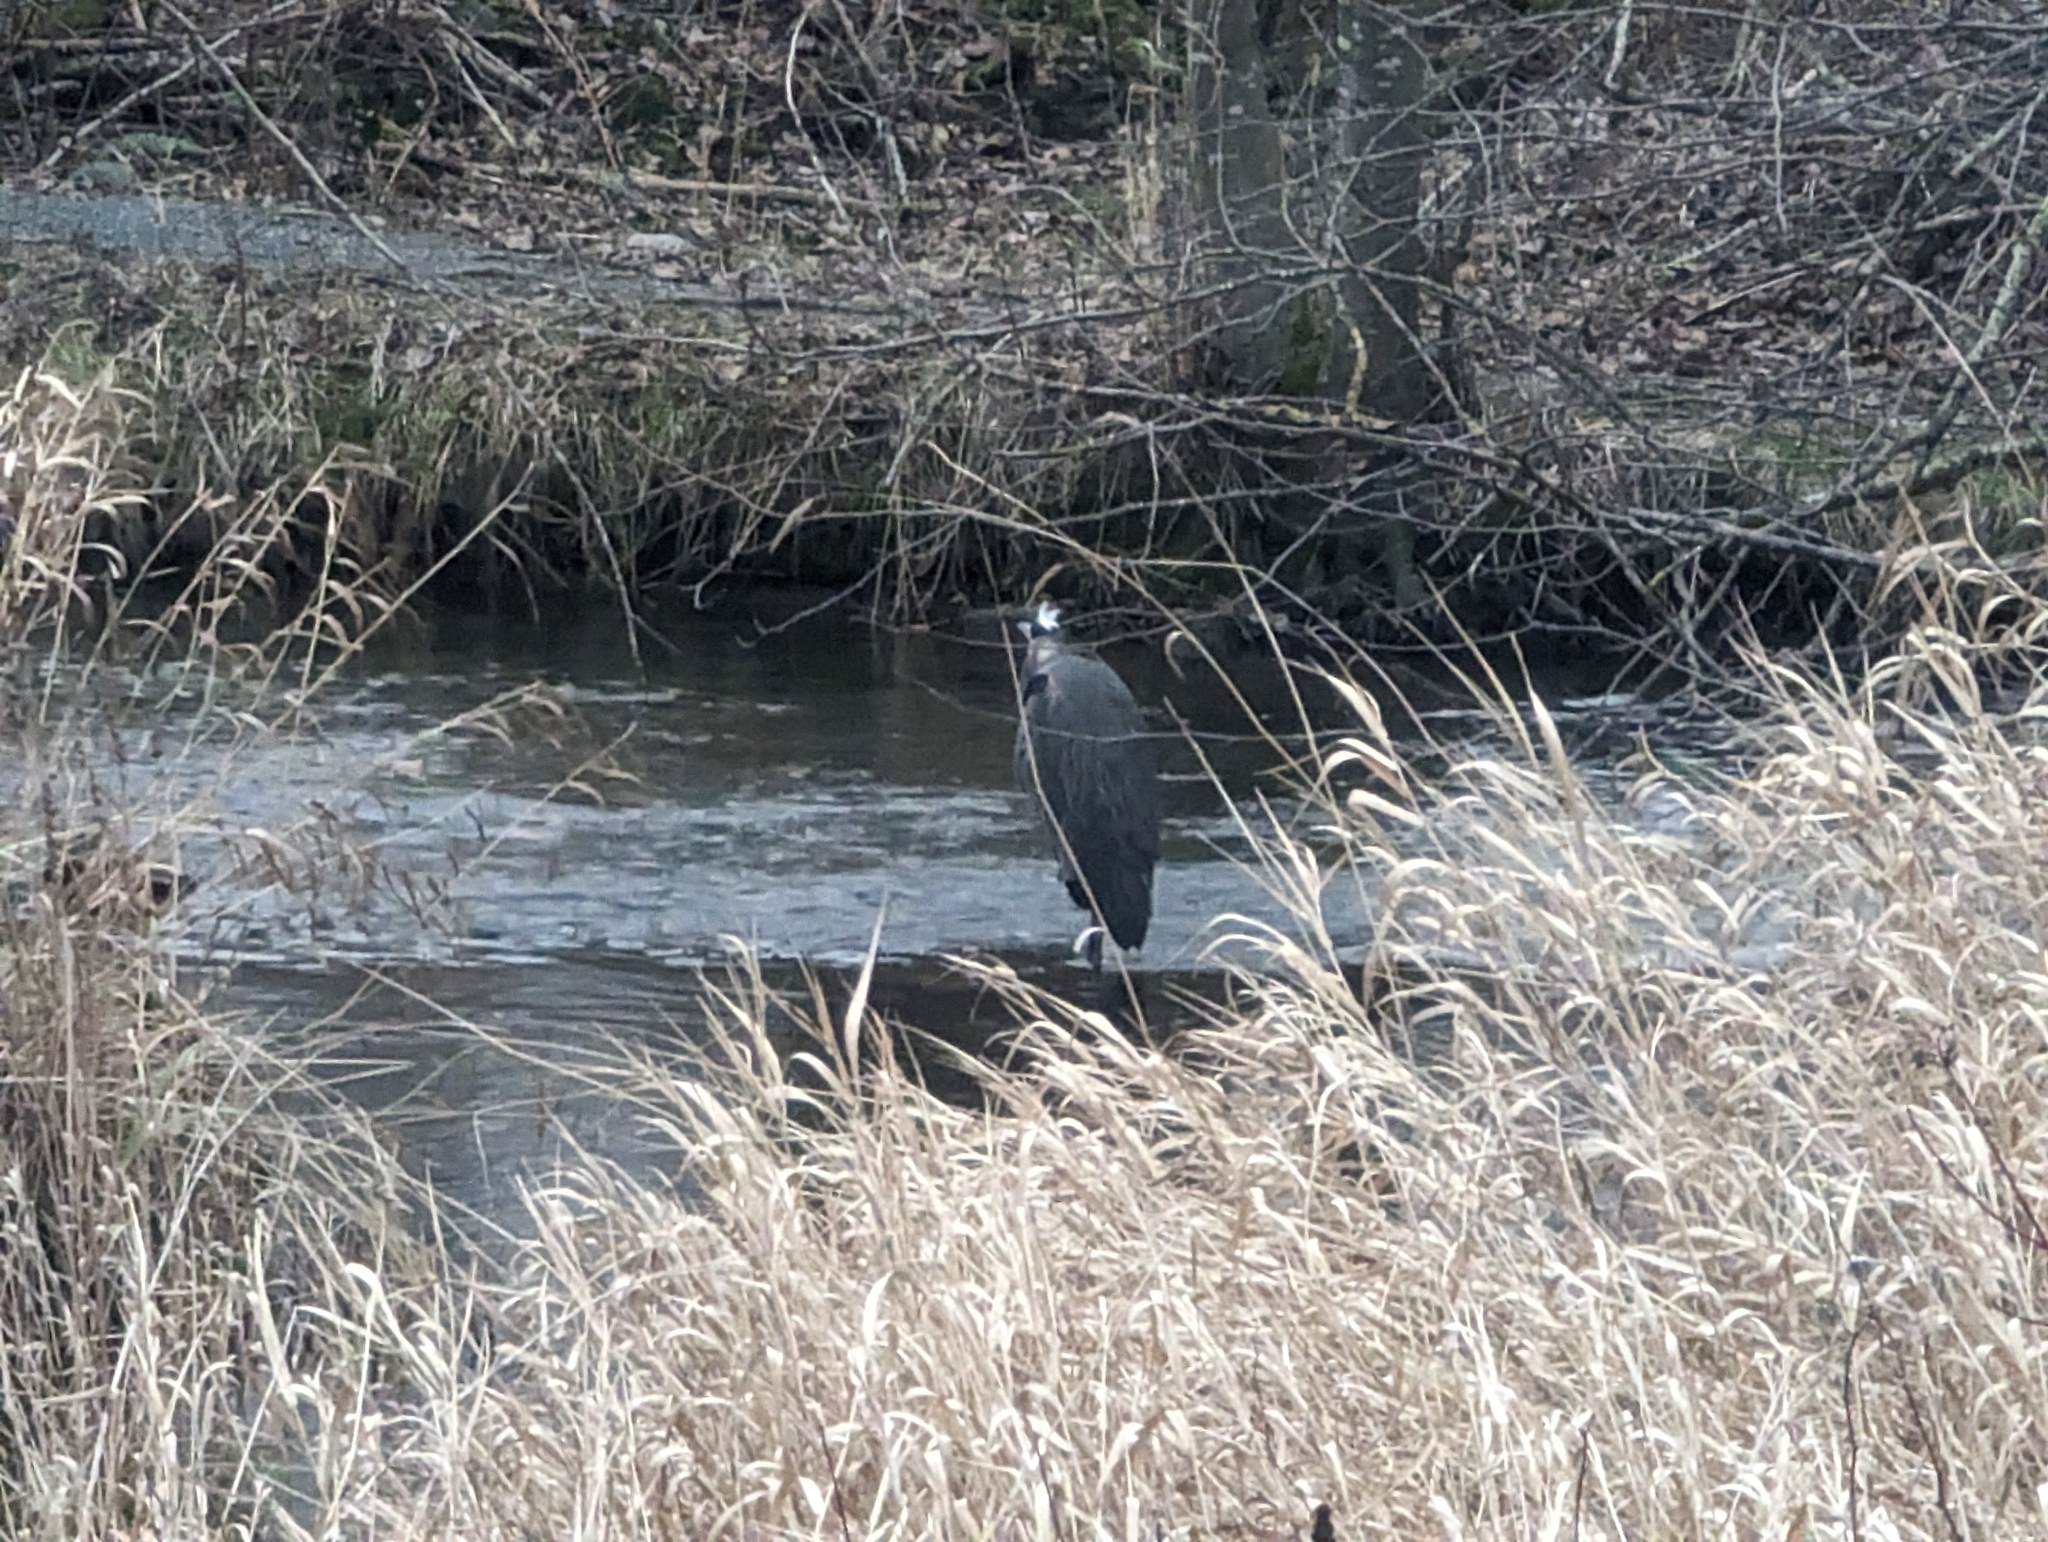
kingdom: Animalia
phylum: Chordata
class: Aves
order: Pelecaniformes
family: Ardeidae
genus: Ardea
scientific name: Ardea herodias
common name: Great blue heron
